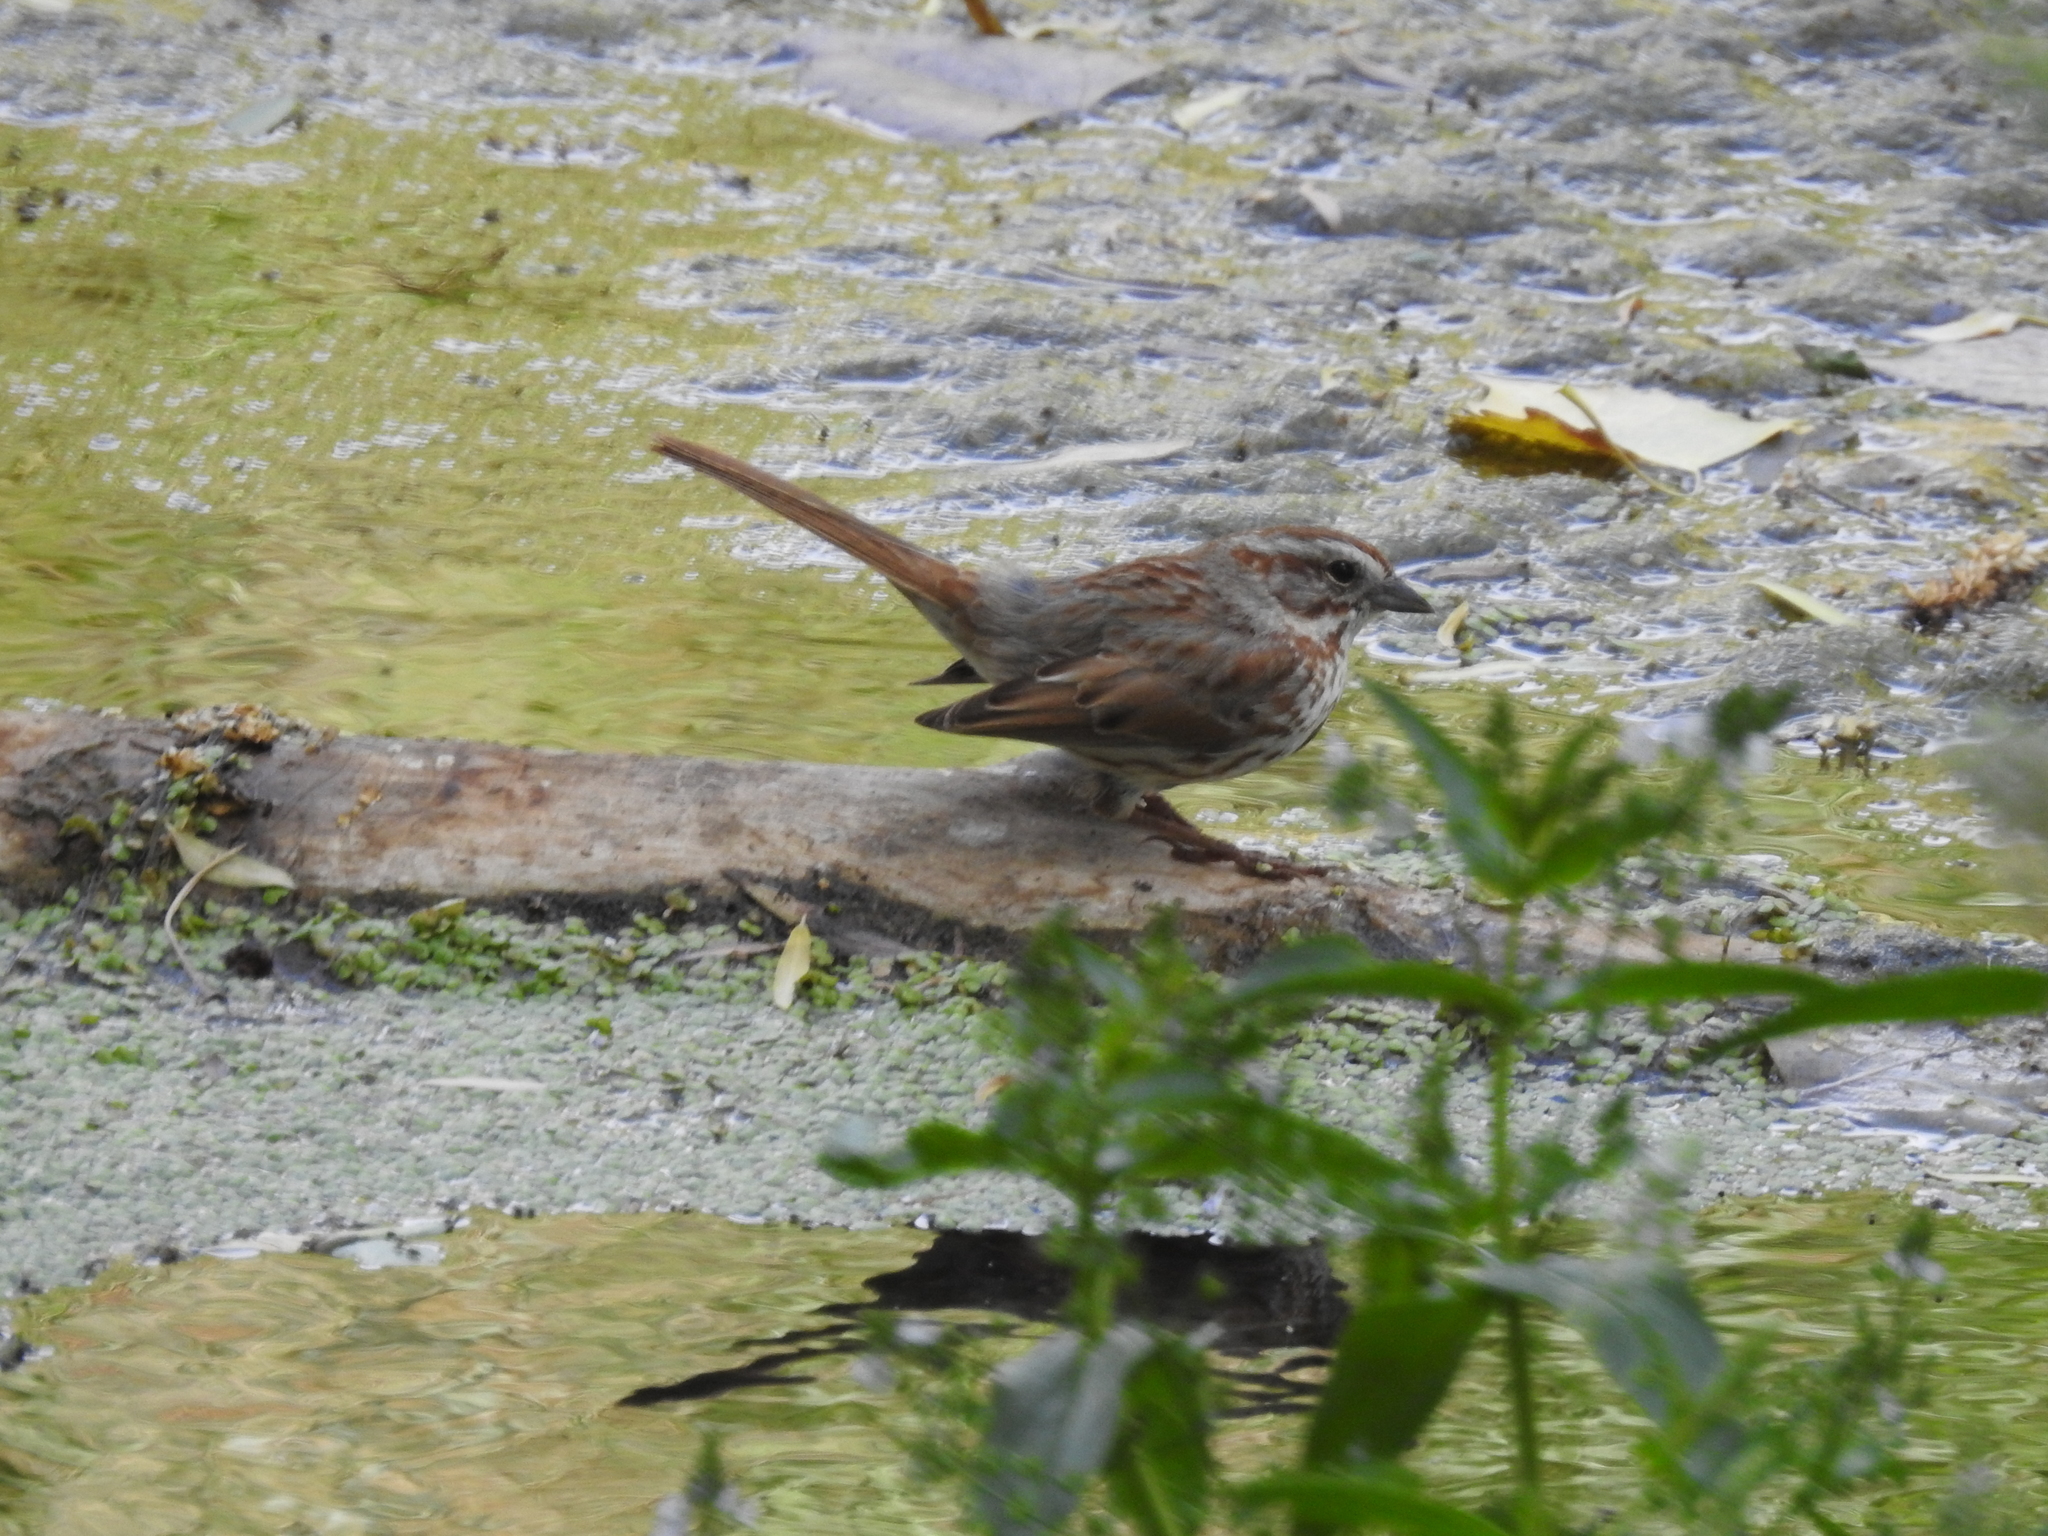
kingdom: Animalia
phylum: Chordata
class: Aves
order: Passeriformes
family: Passerellidae
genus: Melospiza
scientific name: Melospiza melodia
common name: Song sparrow
